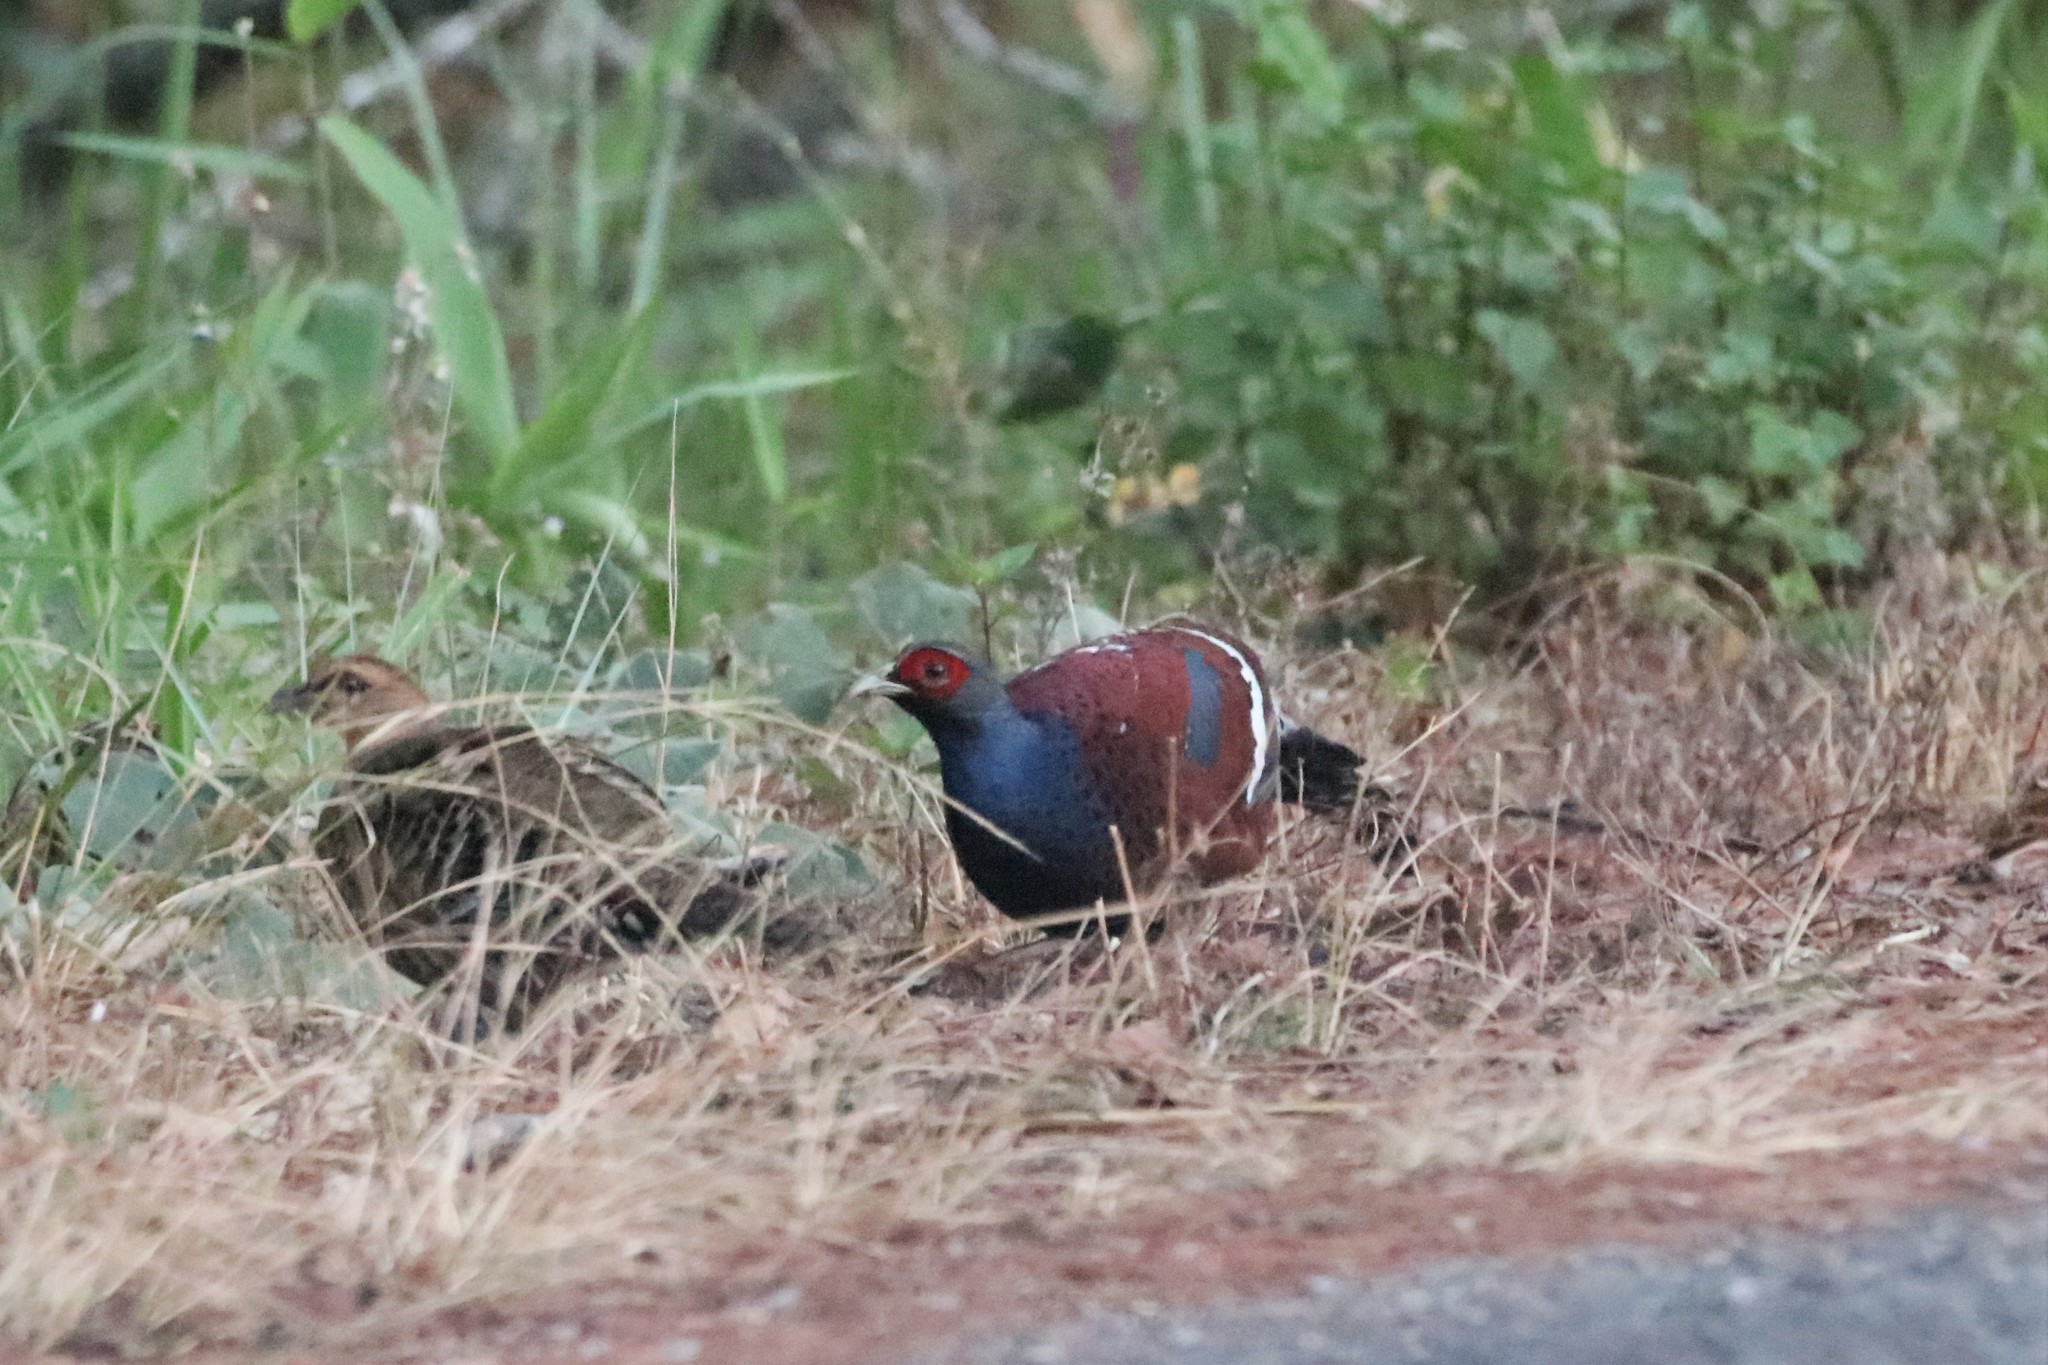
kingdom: Animalia
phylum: Chordata
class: Aves
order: Galliformes
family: Phasianidae
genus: Syrmaticus
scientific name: Syrmaticus humiae
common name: Mrs. hume's pheasant
